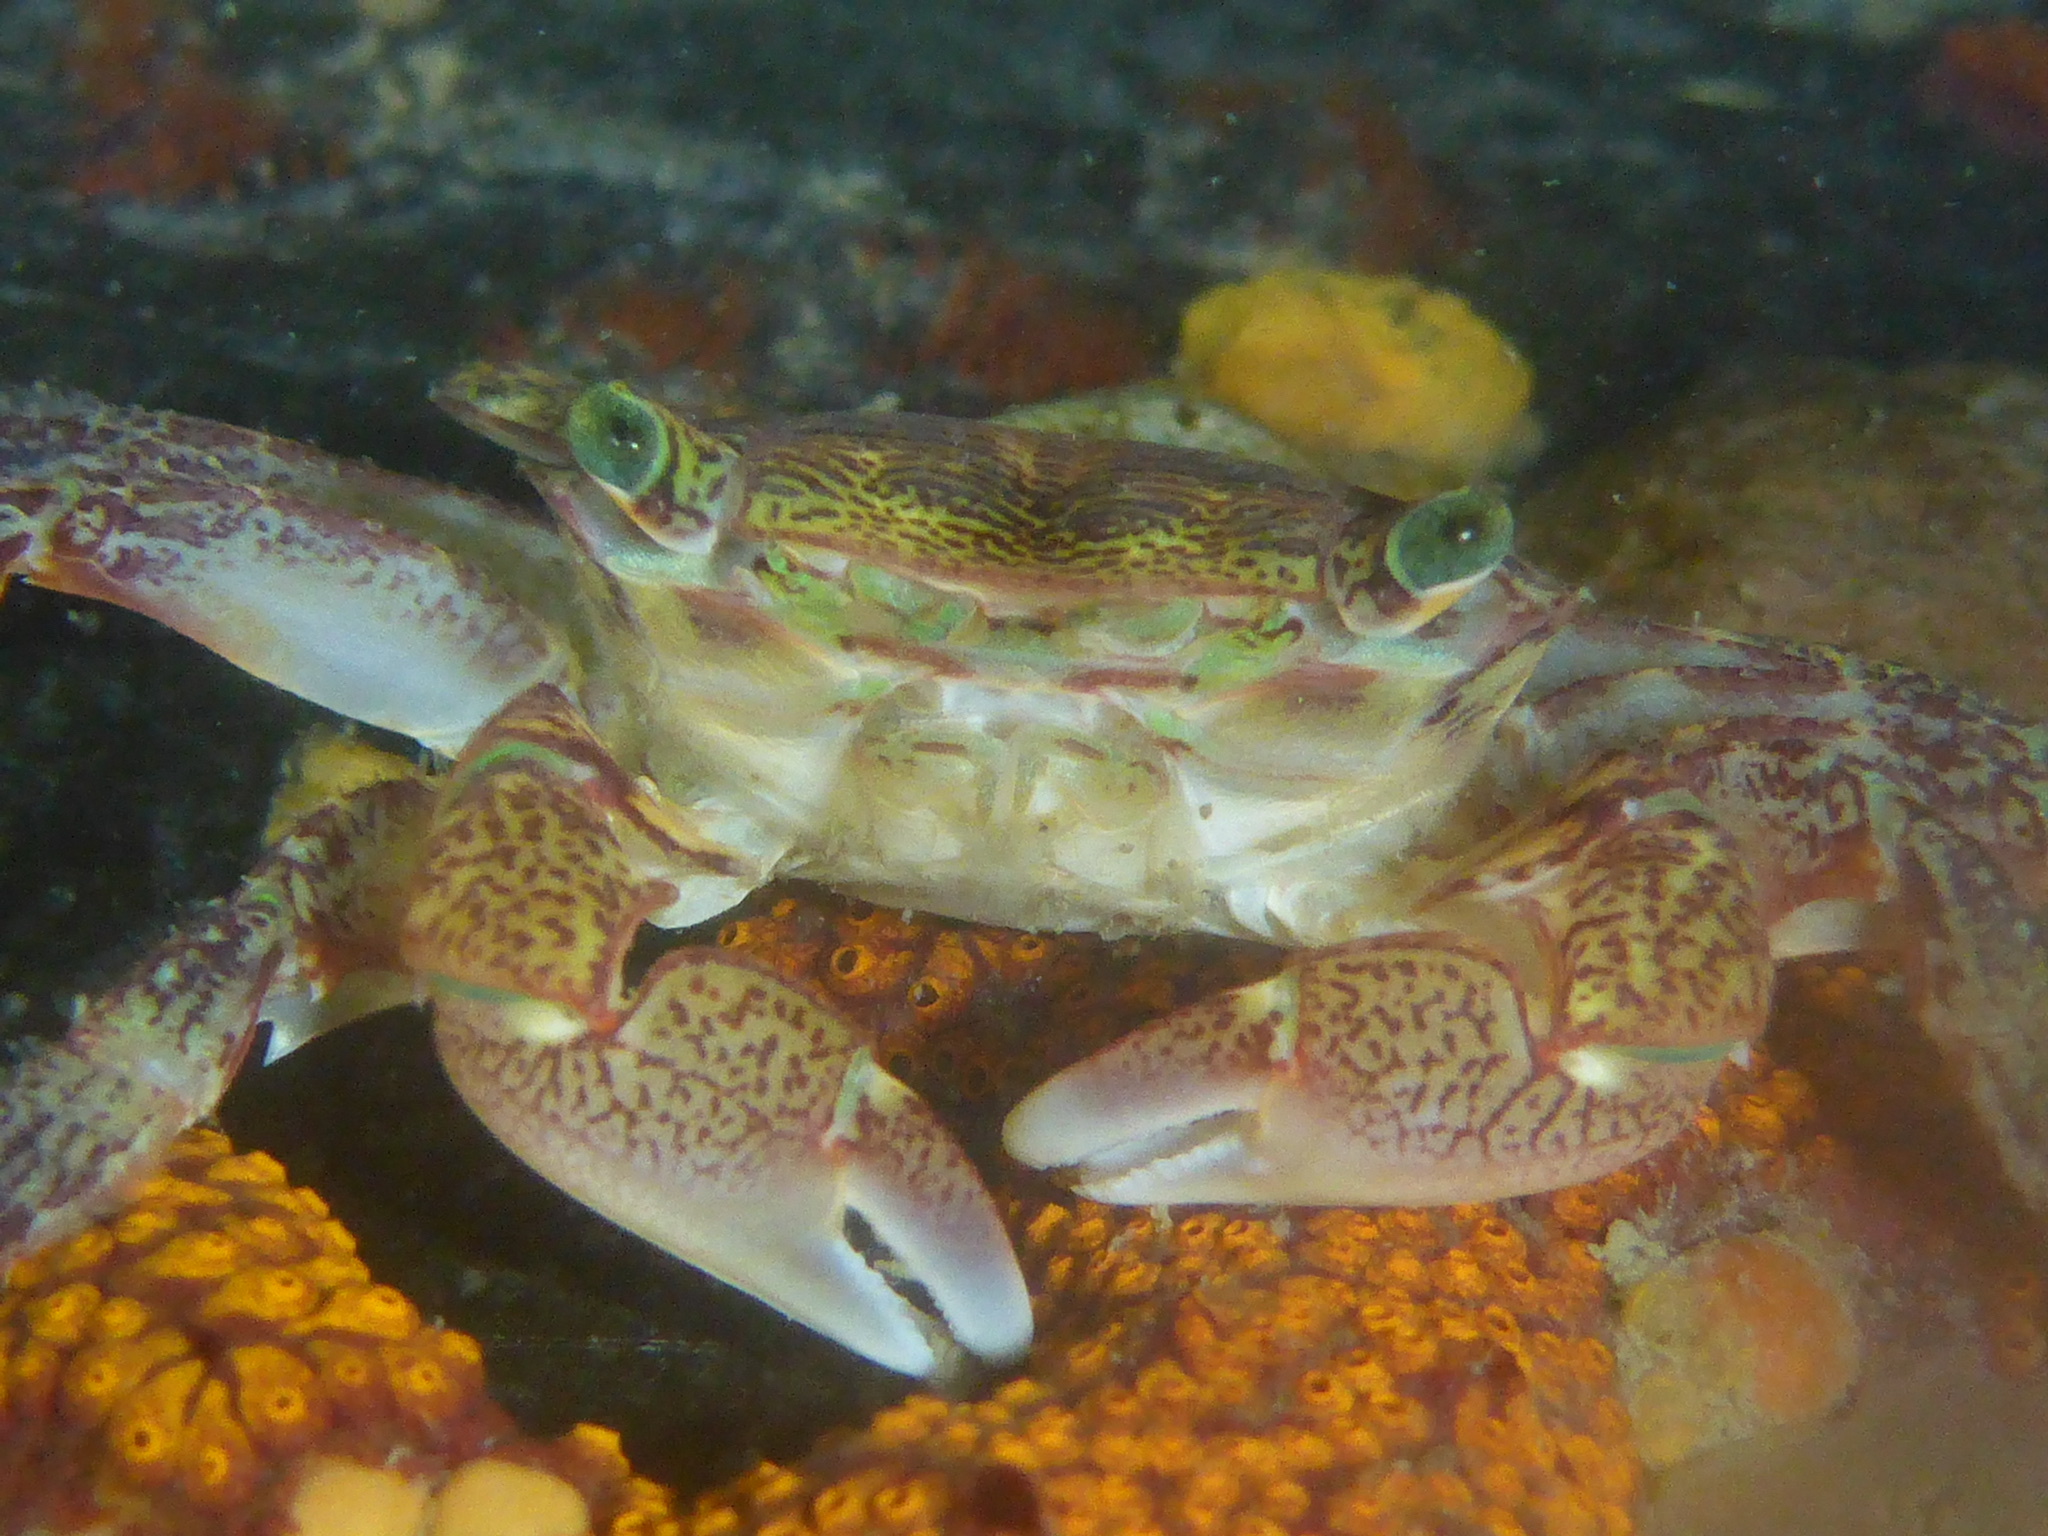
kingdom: Animalia
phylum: Arthropoda
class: Malacostraca
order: Decapoda
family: Grapsidae
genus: Pachygrapsus
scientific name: Pachygrapsus crassipes
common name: Striped shore crab
